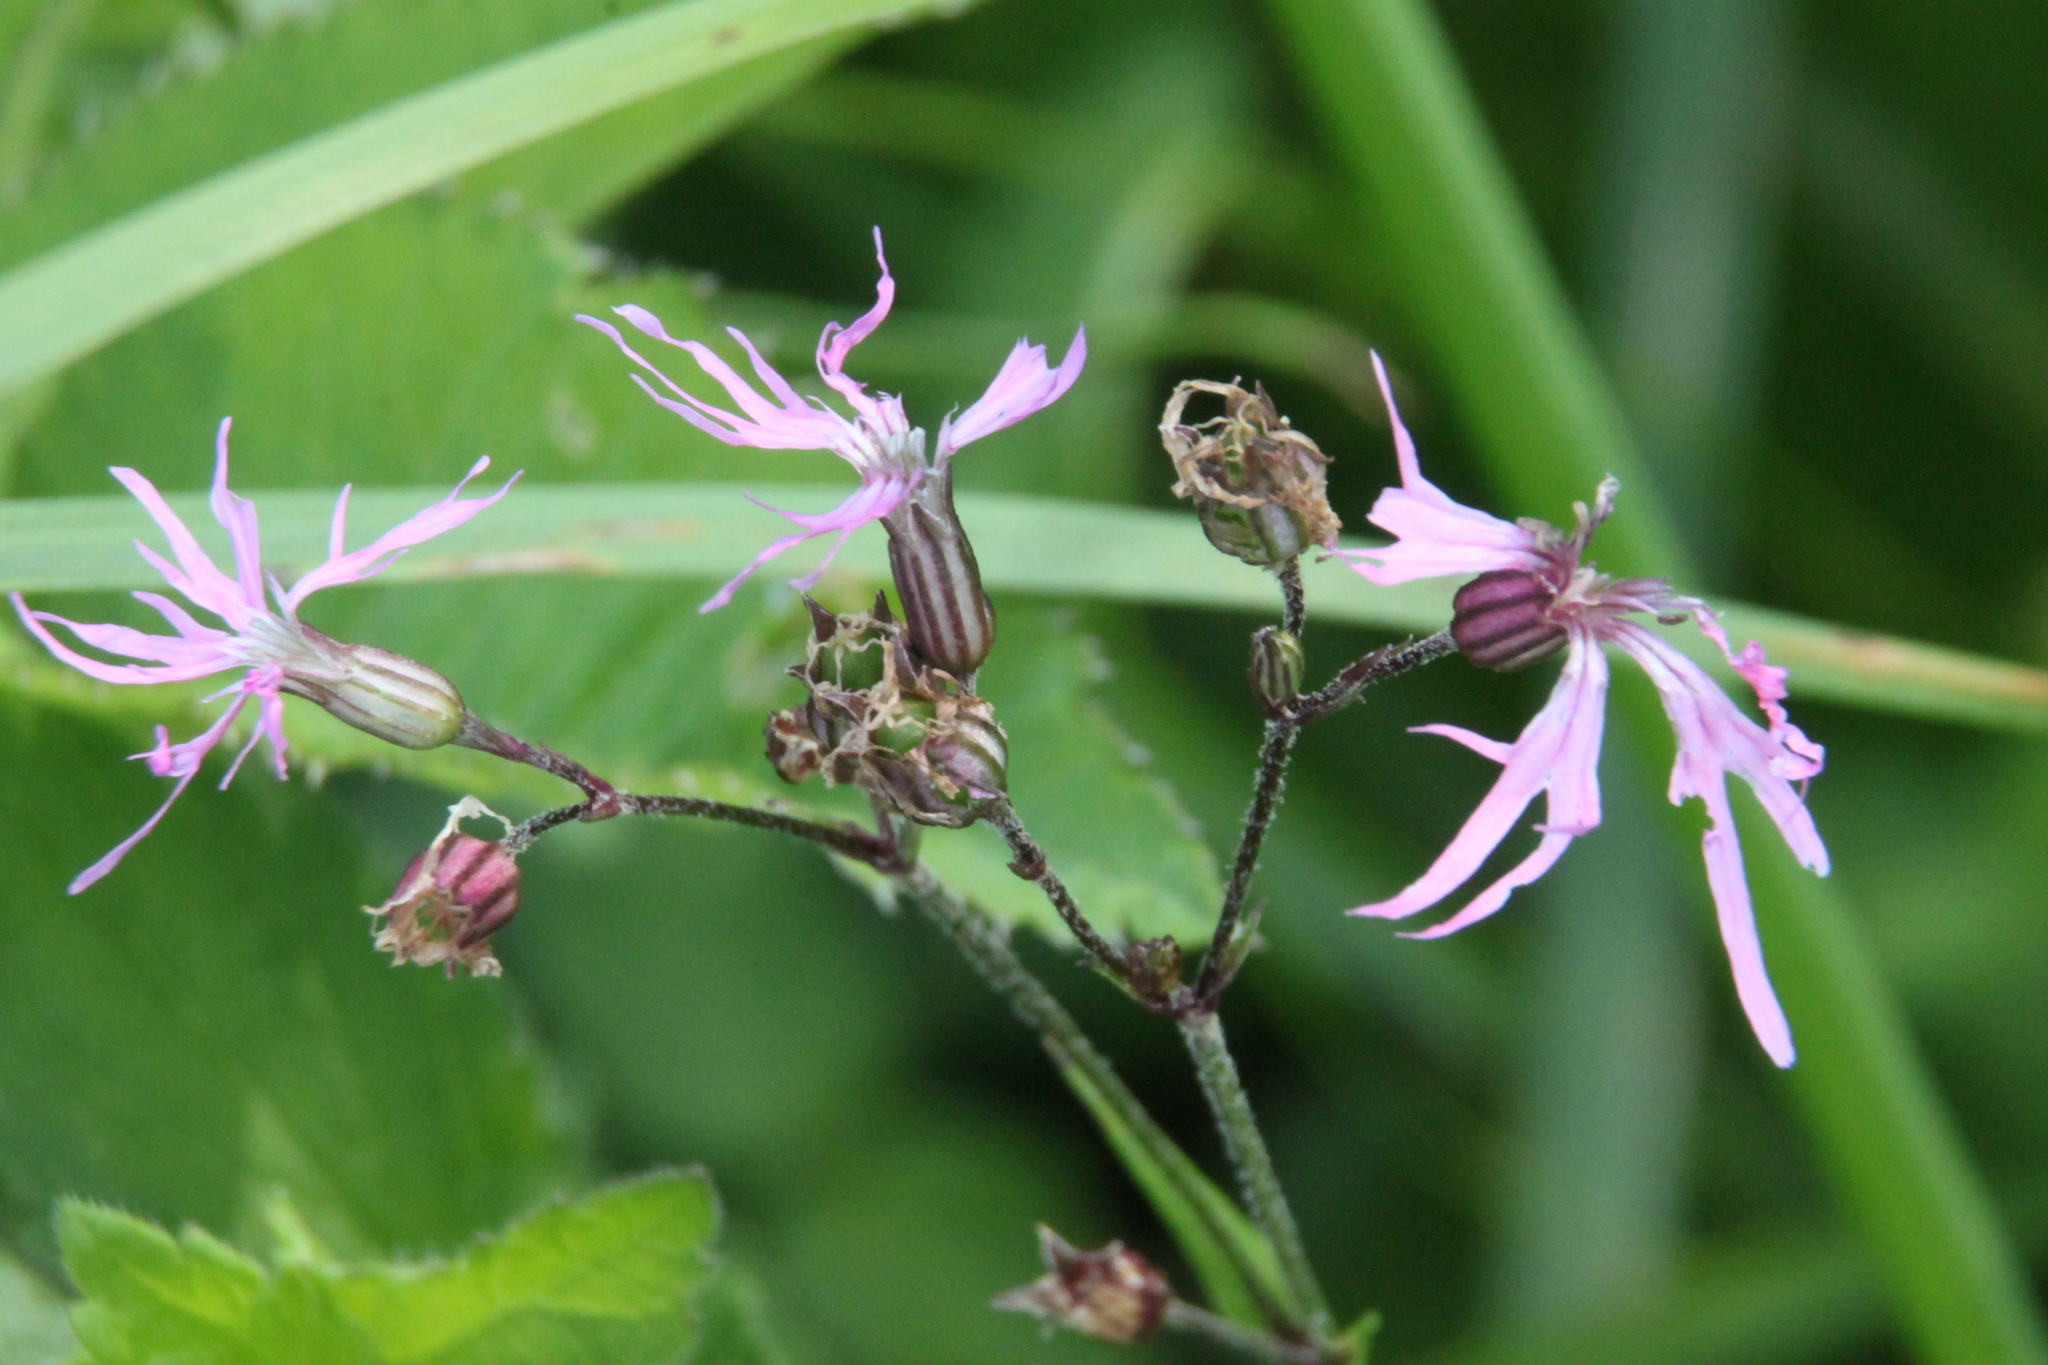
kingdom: Plantae
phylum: Tracheophyta
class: Magnoliopsida
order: Caryophyllales
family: Caryophyllaceae
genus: Silene
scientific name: Silene flos-cuculi
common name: Ragged-robin
